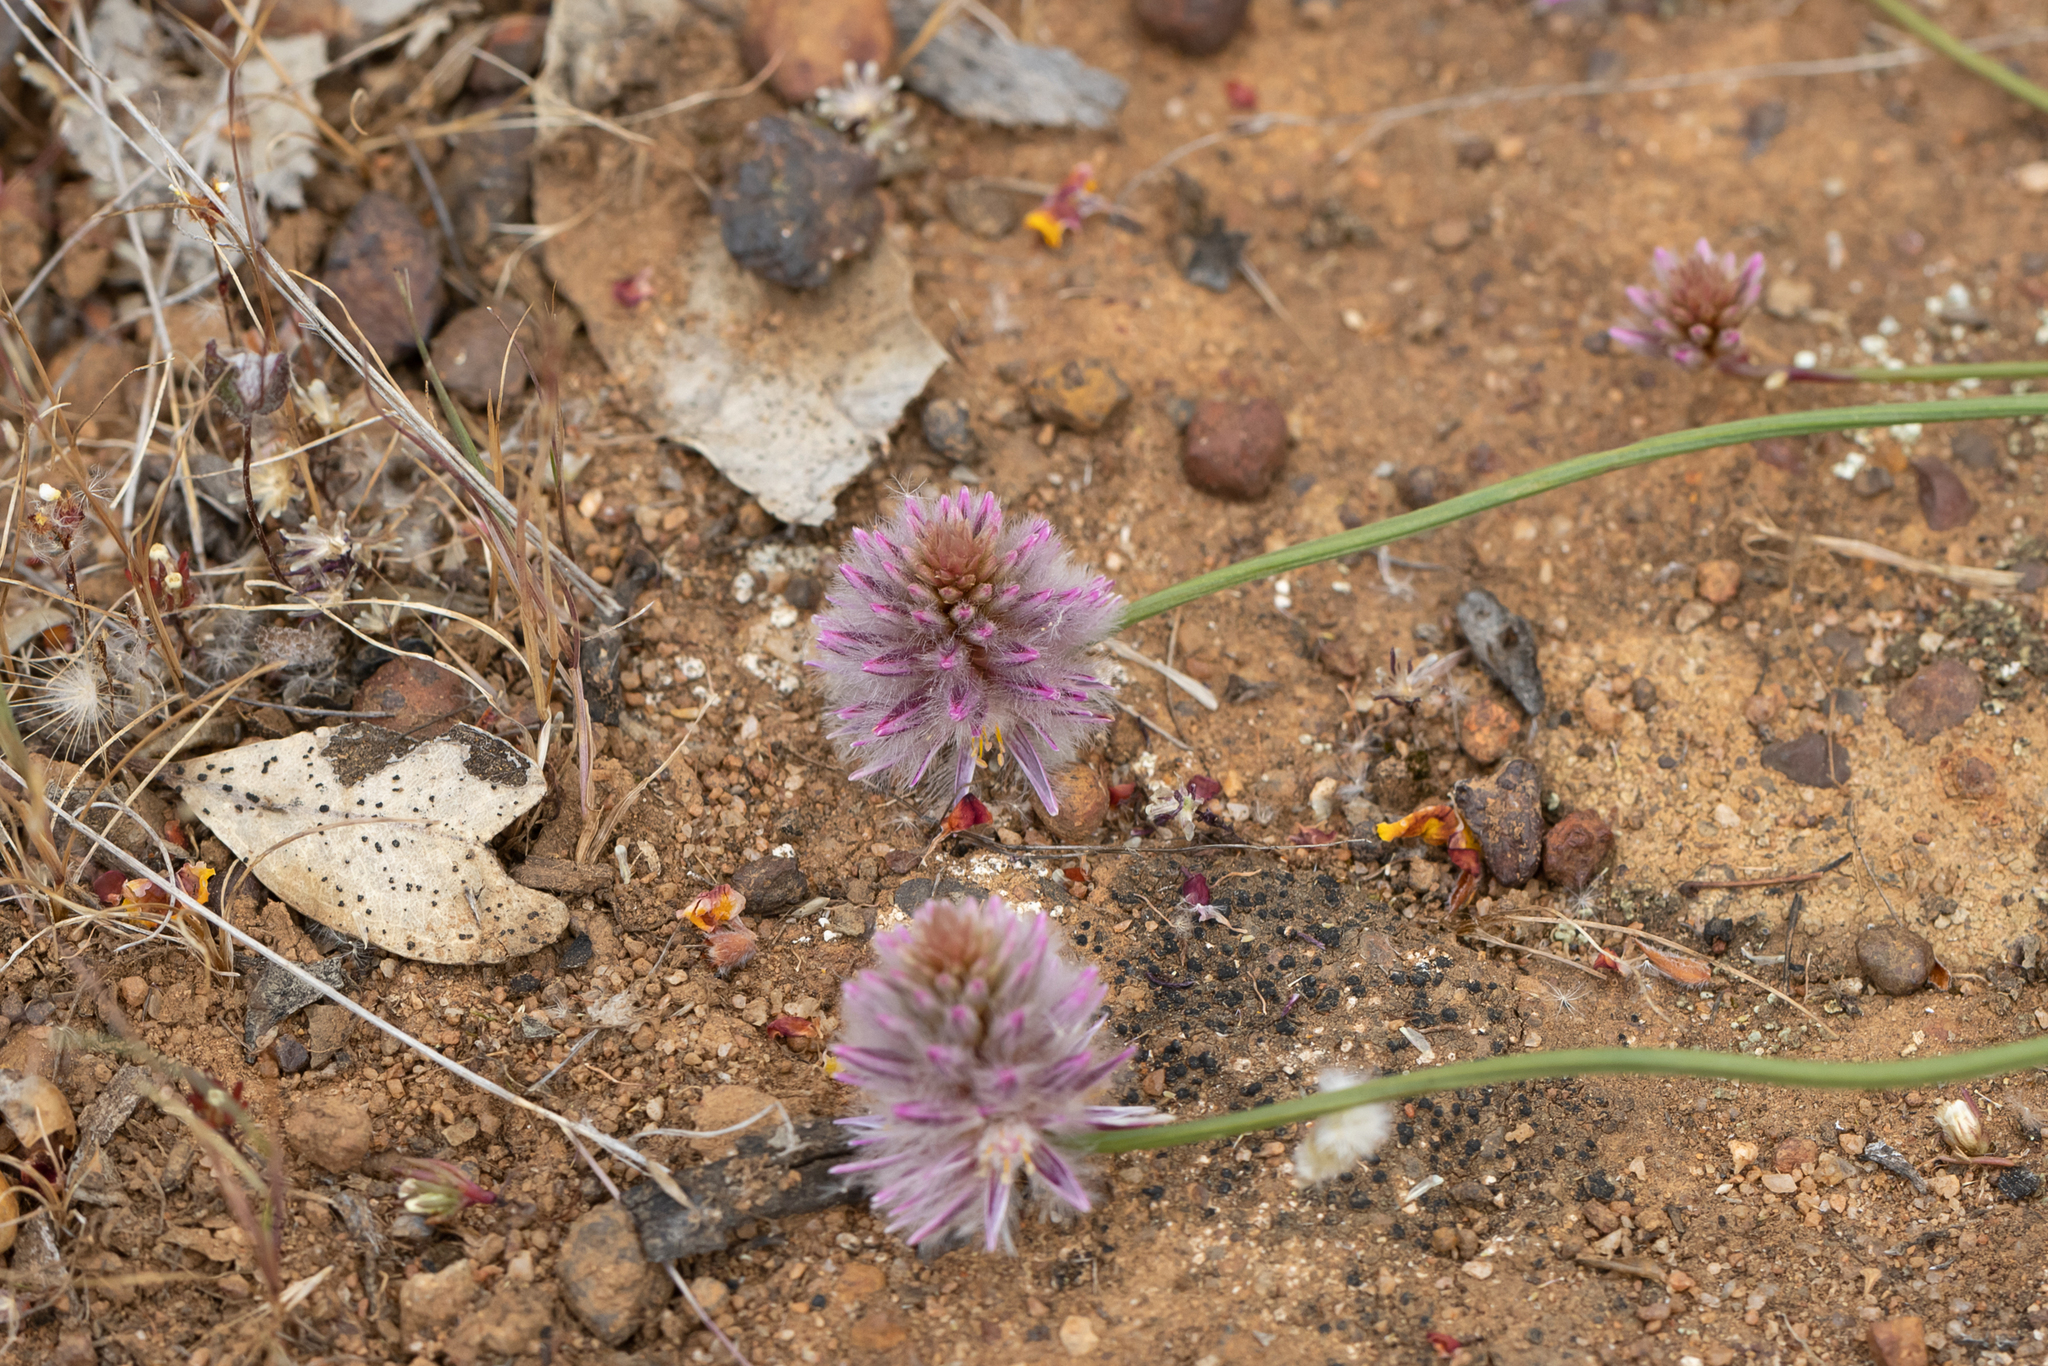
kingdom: Plantae
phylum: Tracheophyta
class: Magnoliopsida
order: Caryophyllales
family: Amaranthaceae
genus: Ptilotus
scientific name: Ptilotus drummondii
